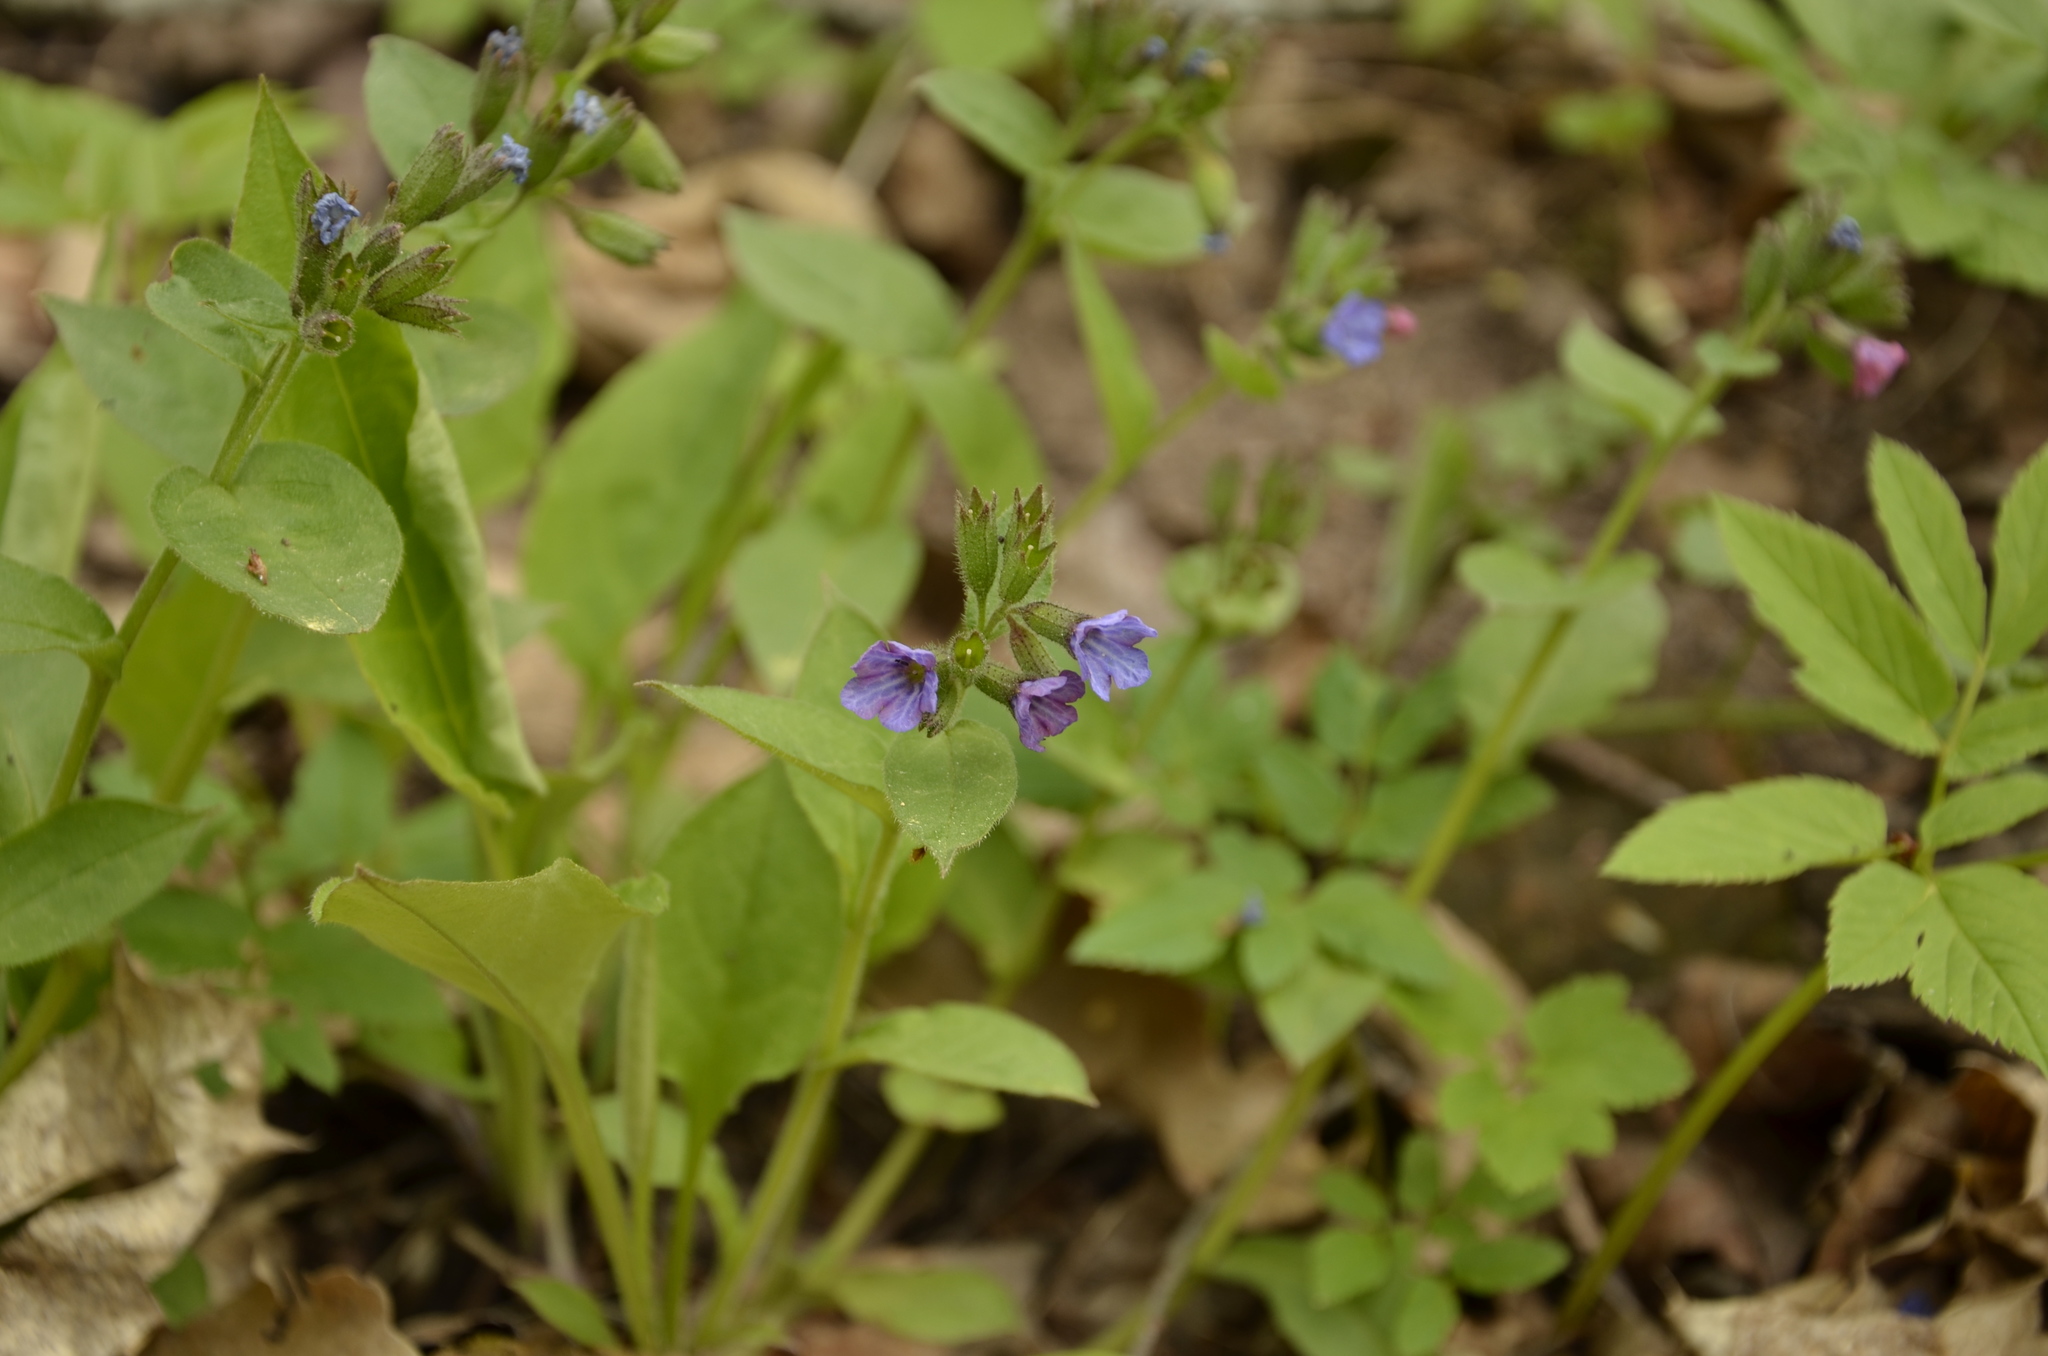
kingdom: Plantae
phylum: Tracheophyta
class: Magnoliopsida
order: Boraginales
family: Boraginaceae
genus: Pulmonaria
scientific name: Pulmonaria obscura
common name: Suffolk lungwort
